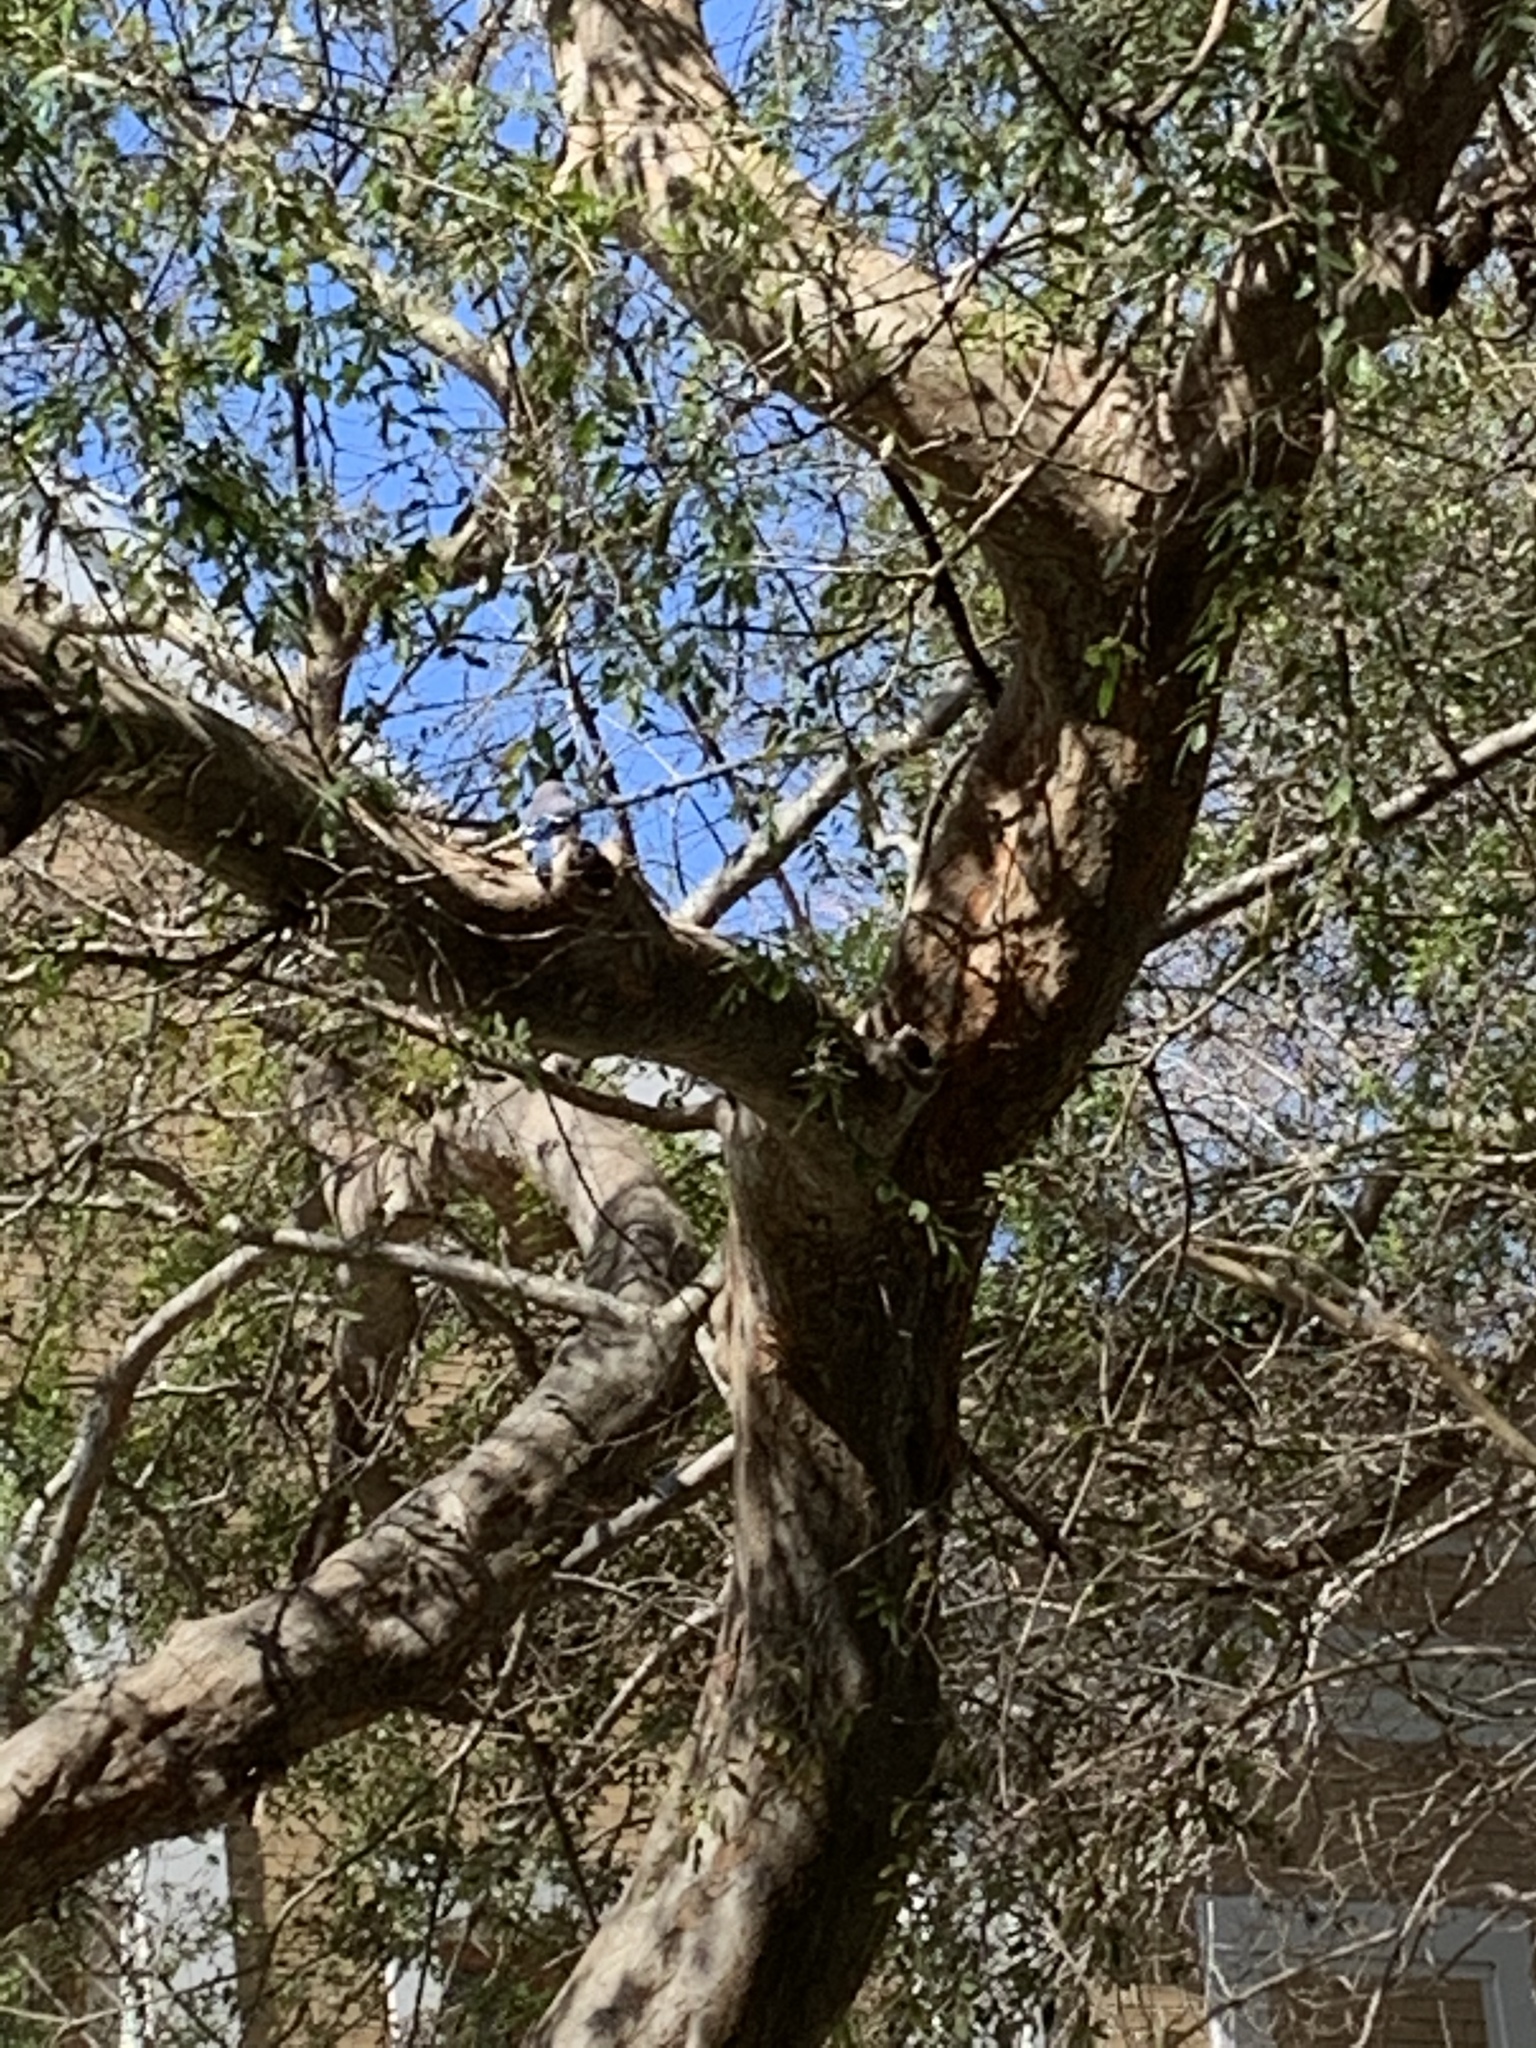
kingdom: Animalia
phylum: Chordata
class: Aves
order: Passeriformes
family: Corvidae
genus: Cyanocitta
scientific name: Cyanocitta cristata
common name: Blue jay
